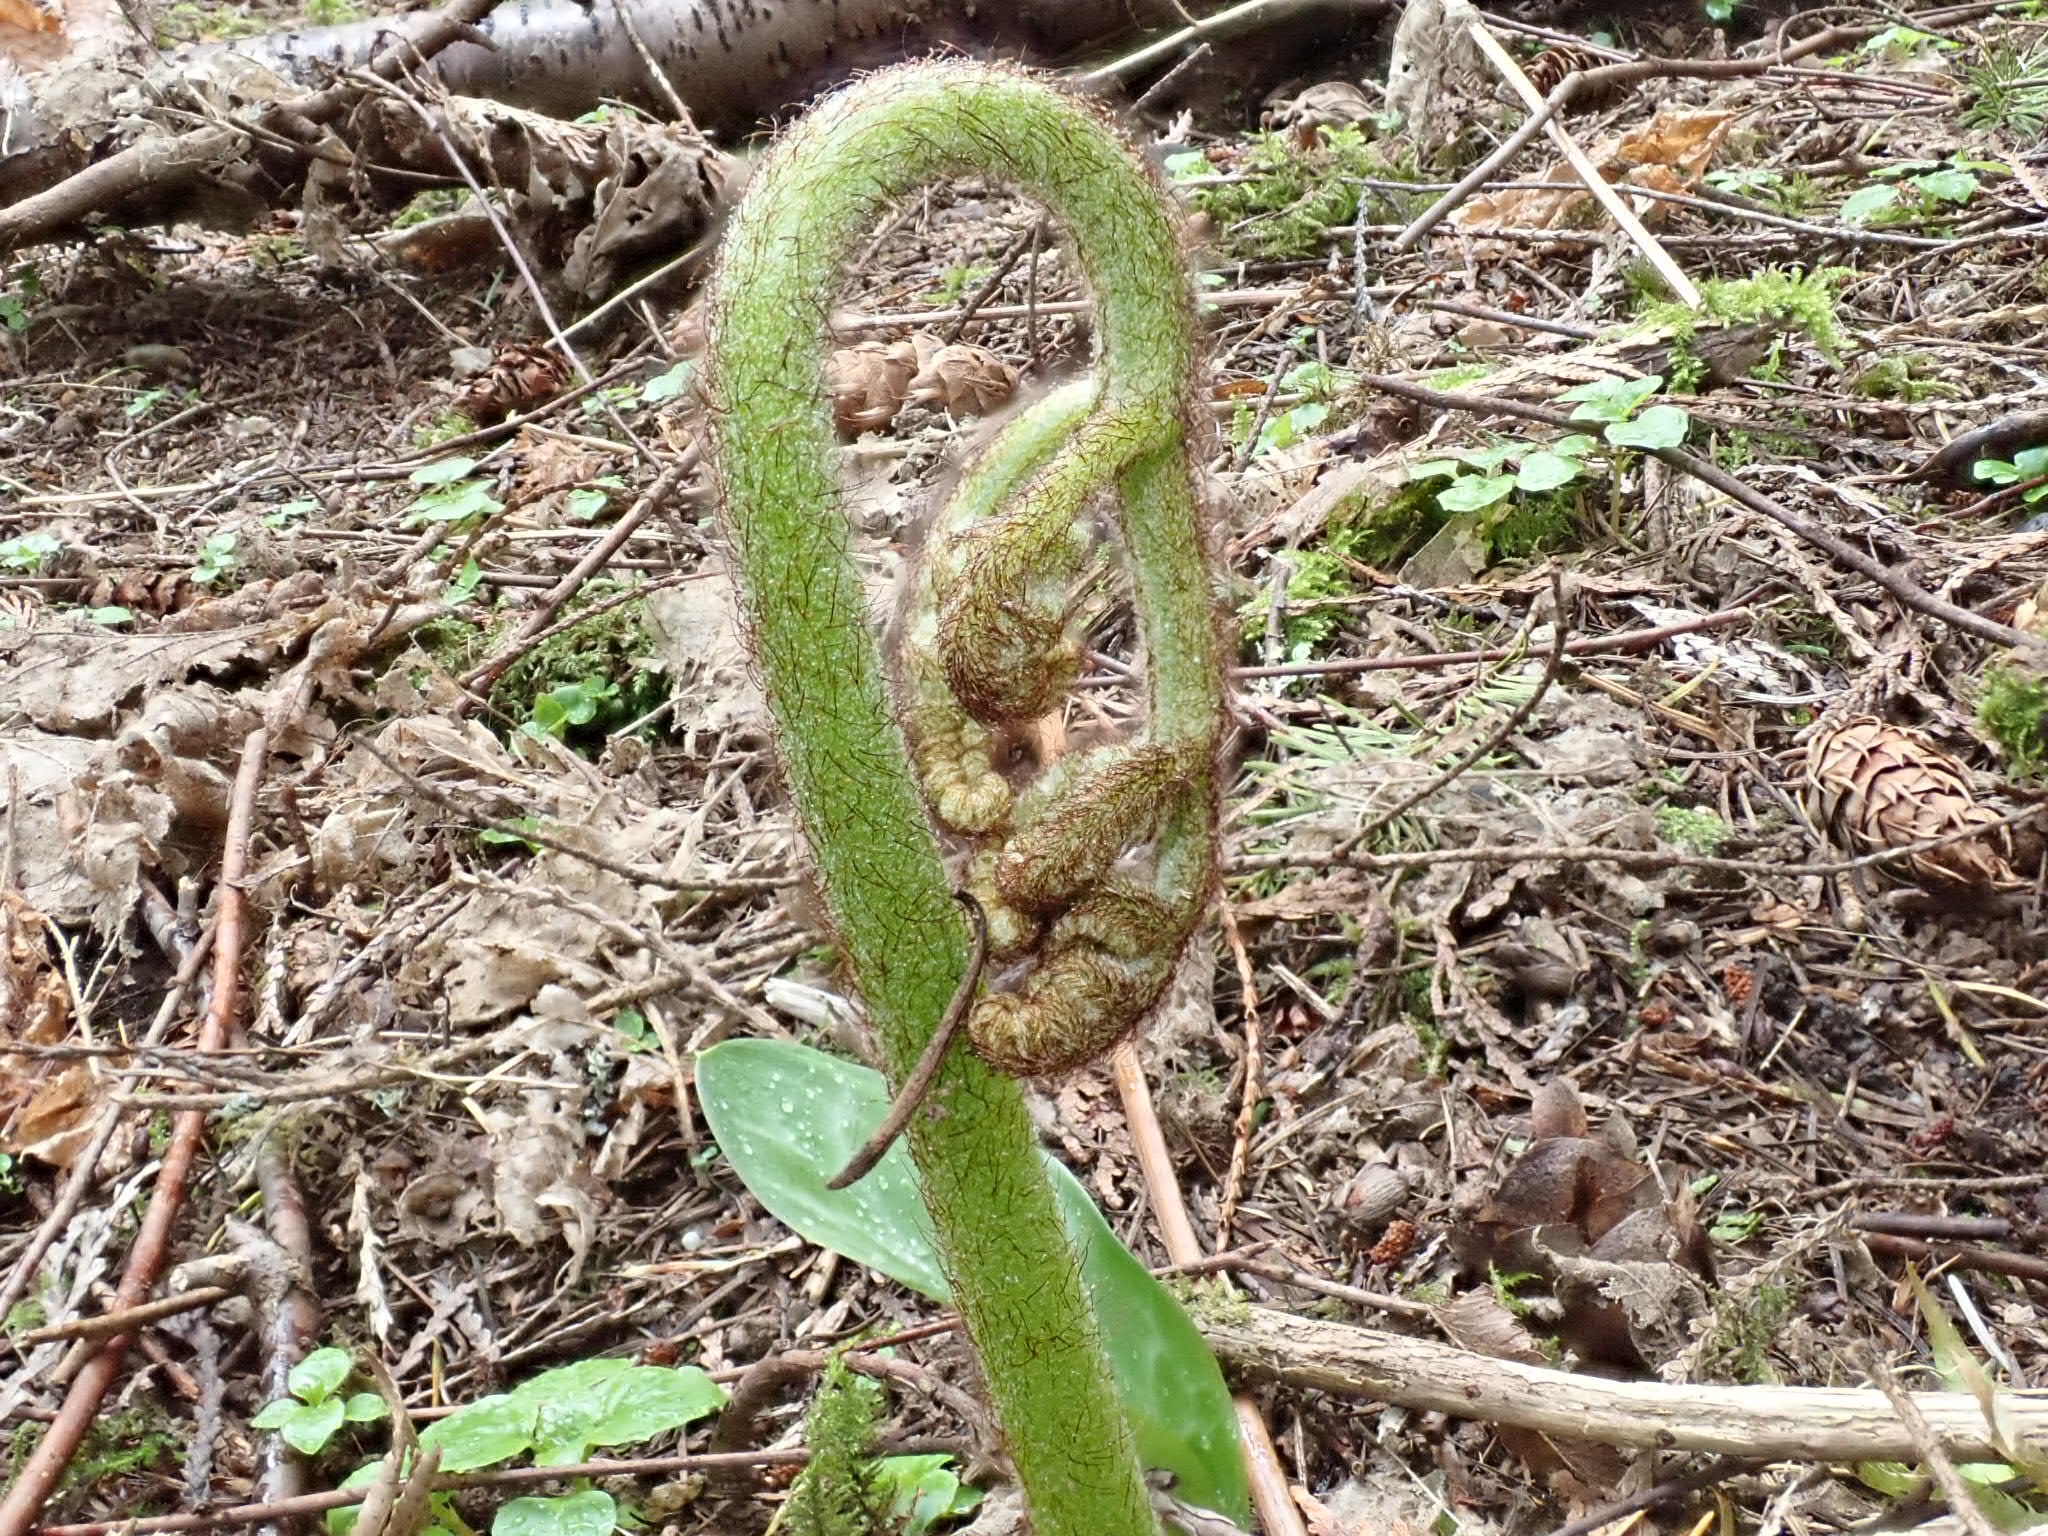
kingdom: Plantae
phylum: Tracheophyta
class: Polypodiopsida
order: Polypodiales
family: Dennstaedtiaceae
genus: Pteridium
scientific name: Pteridium aquilinum
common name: Bracken
